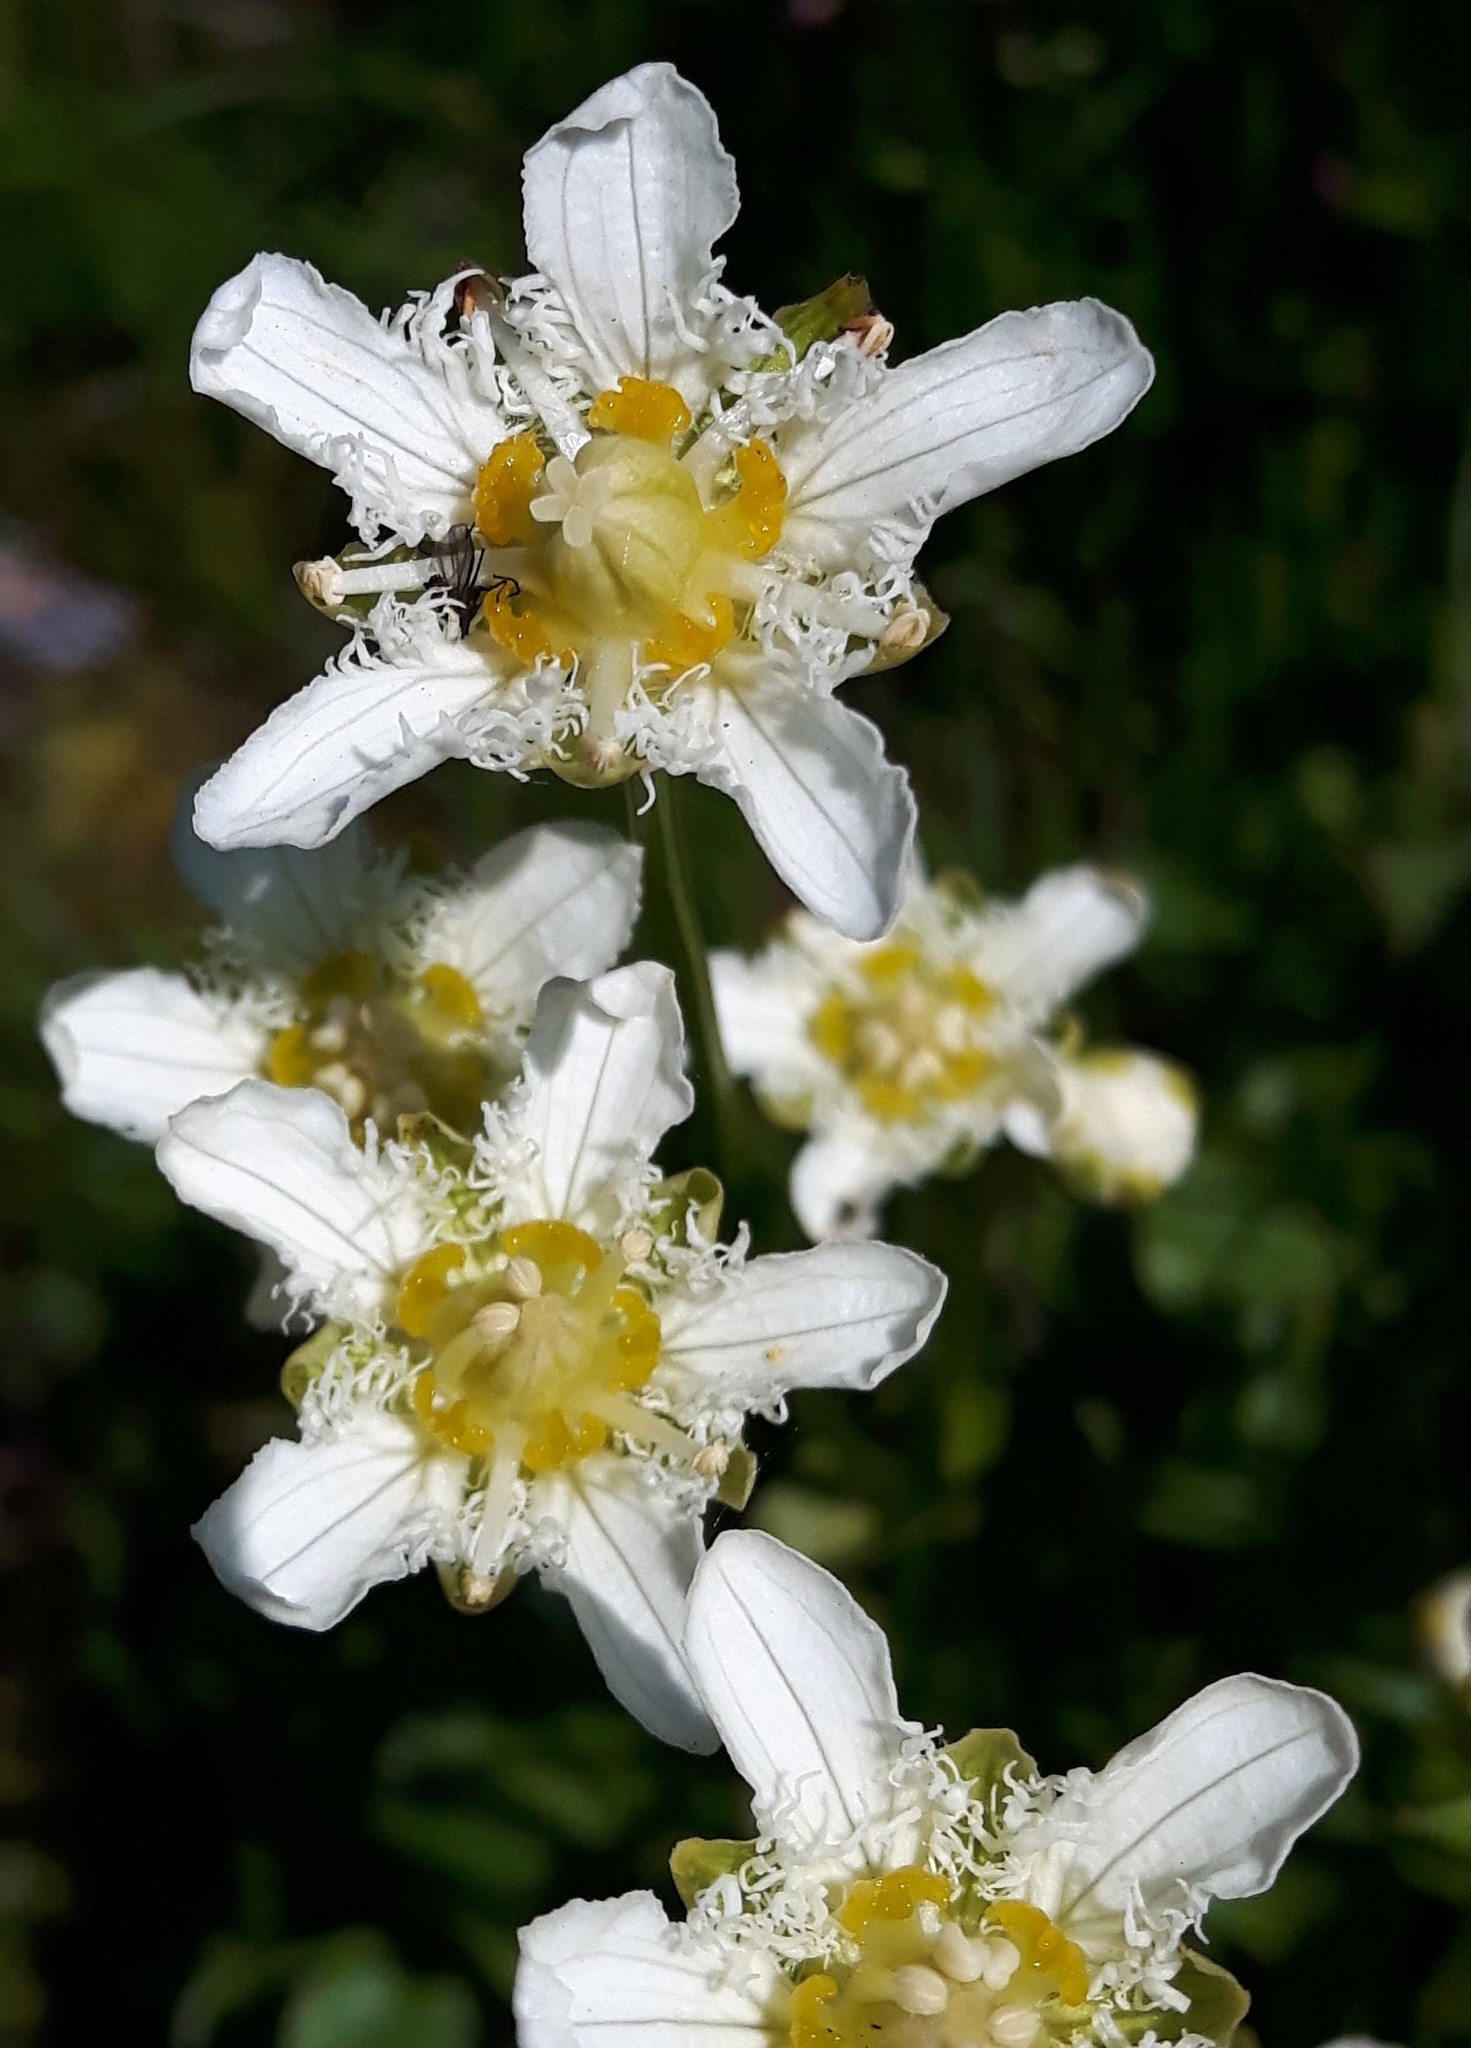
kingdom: Plantae
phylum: Tracheophyta
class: Magnoliopsida
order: Celastrales
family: Parnassiaceae
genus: Parnassia
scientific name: Parnassia fimbriata
